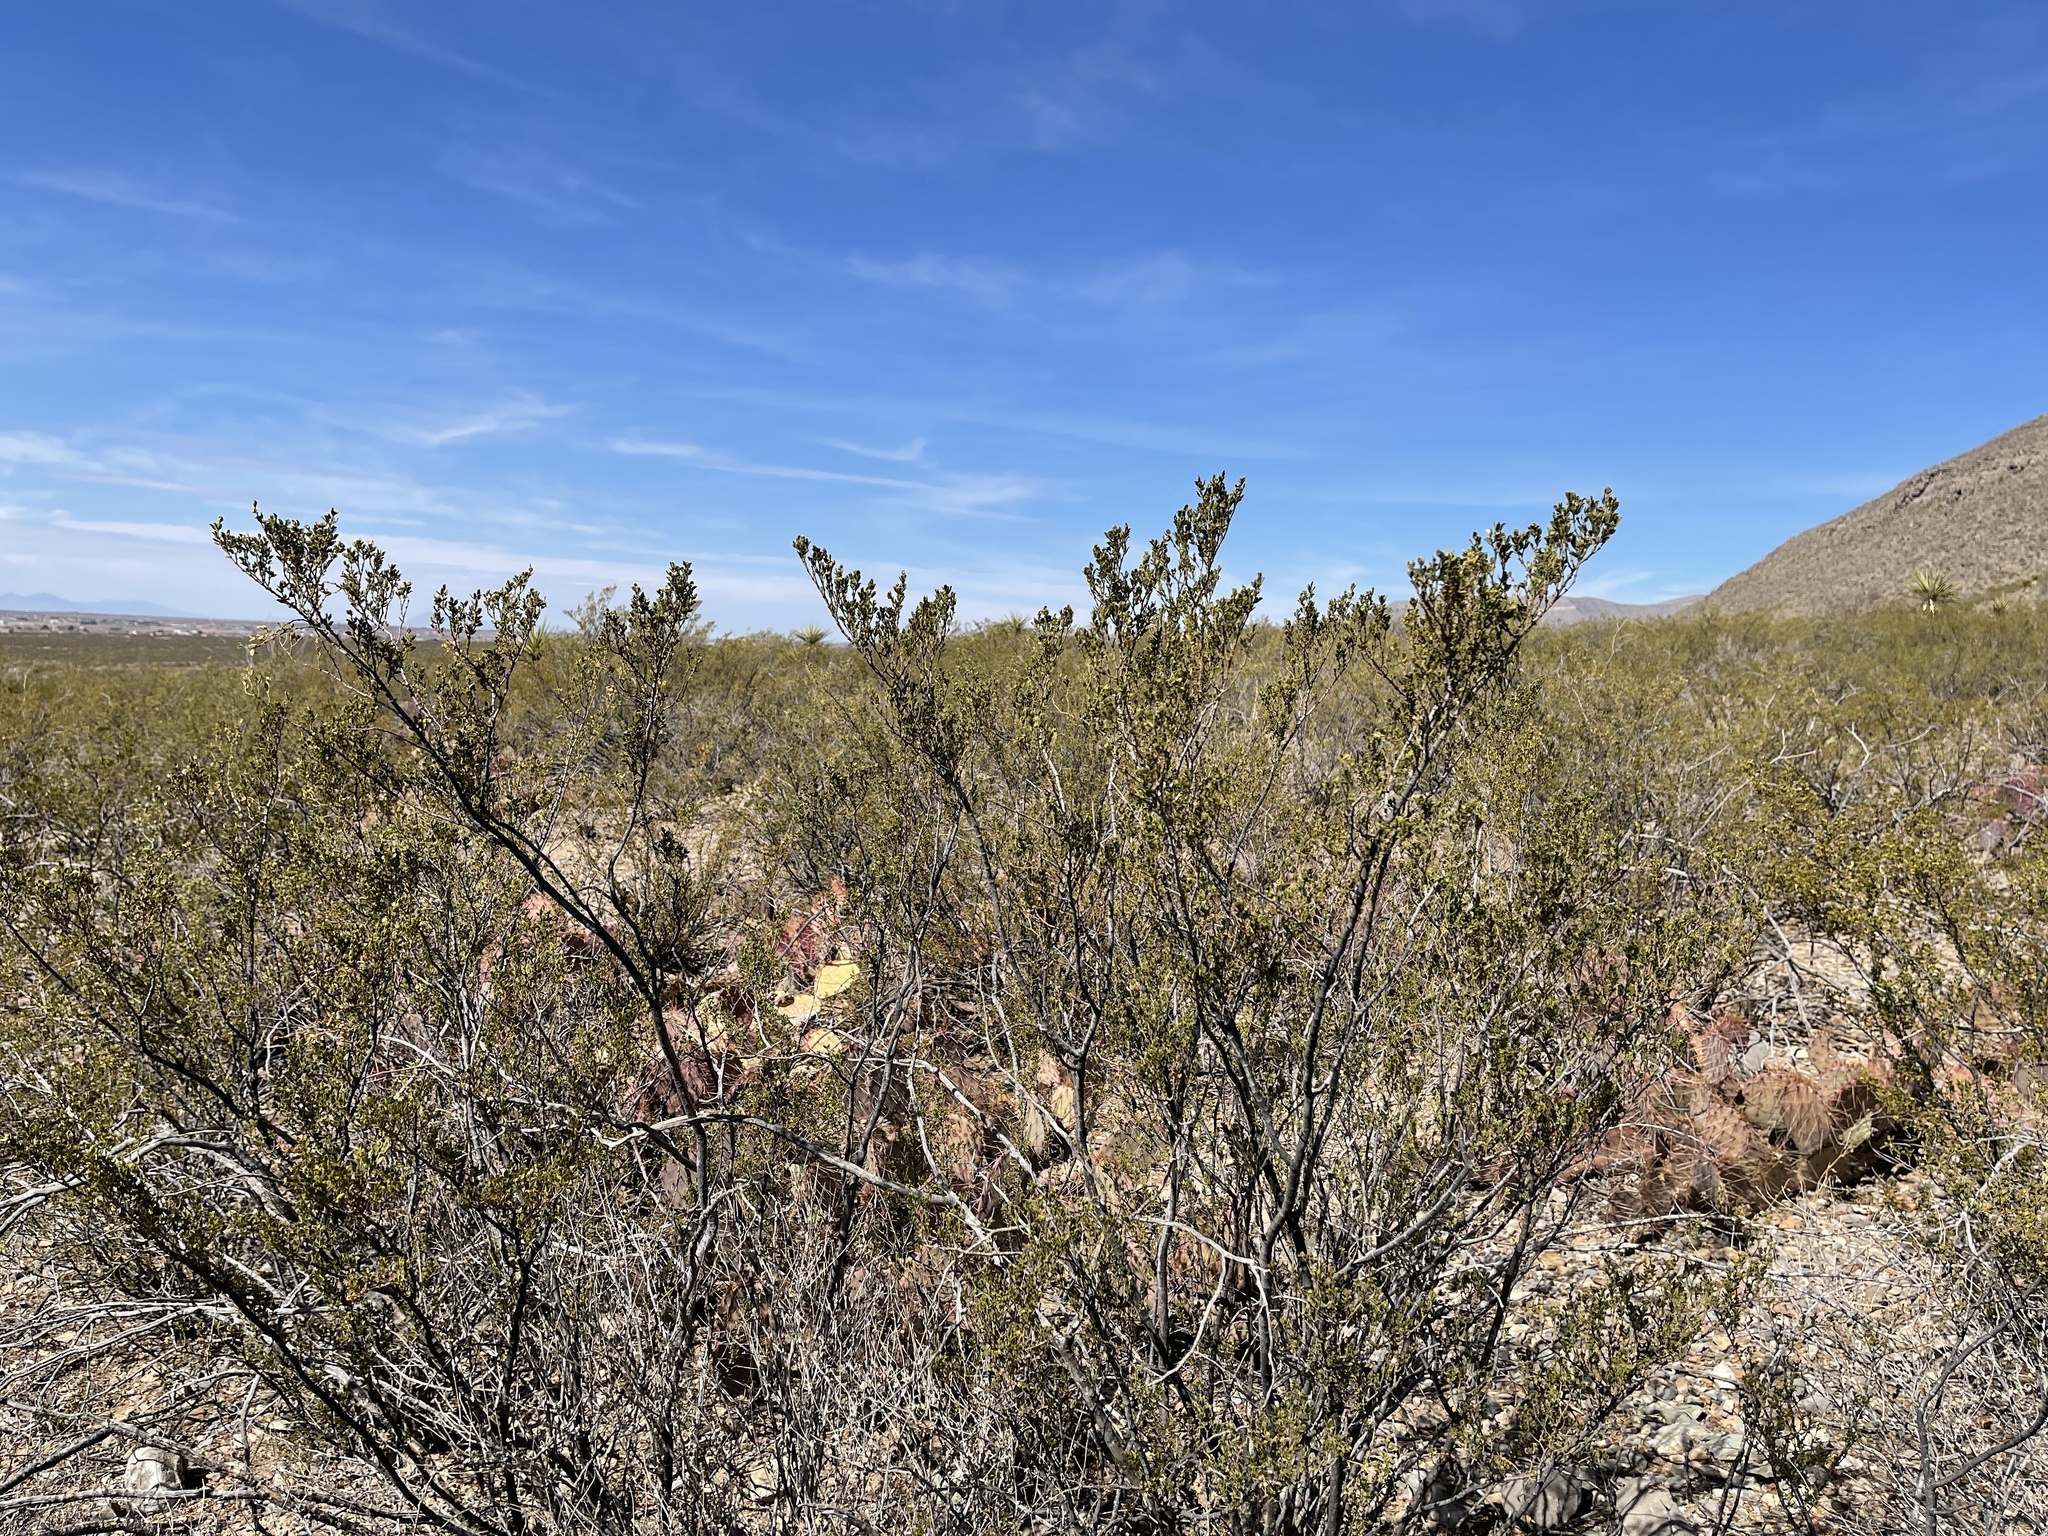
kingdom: Plantae
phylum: Tracheophyta
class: Magnoliopsida
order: Zygophyllales
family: Zygophyllaceae
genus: Larrea
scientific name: Larrea tridentata
